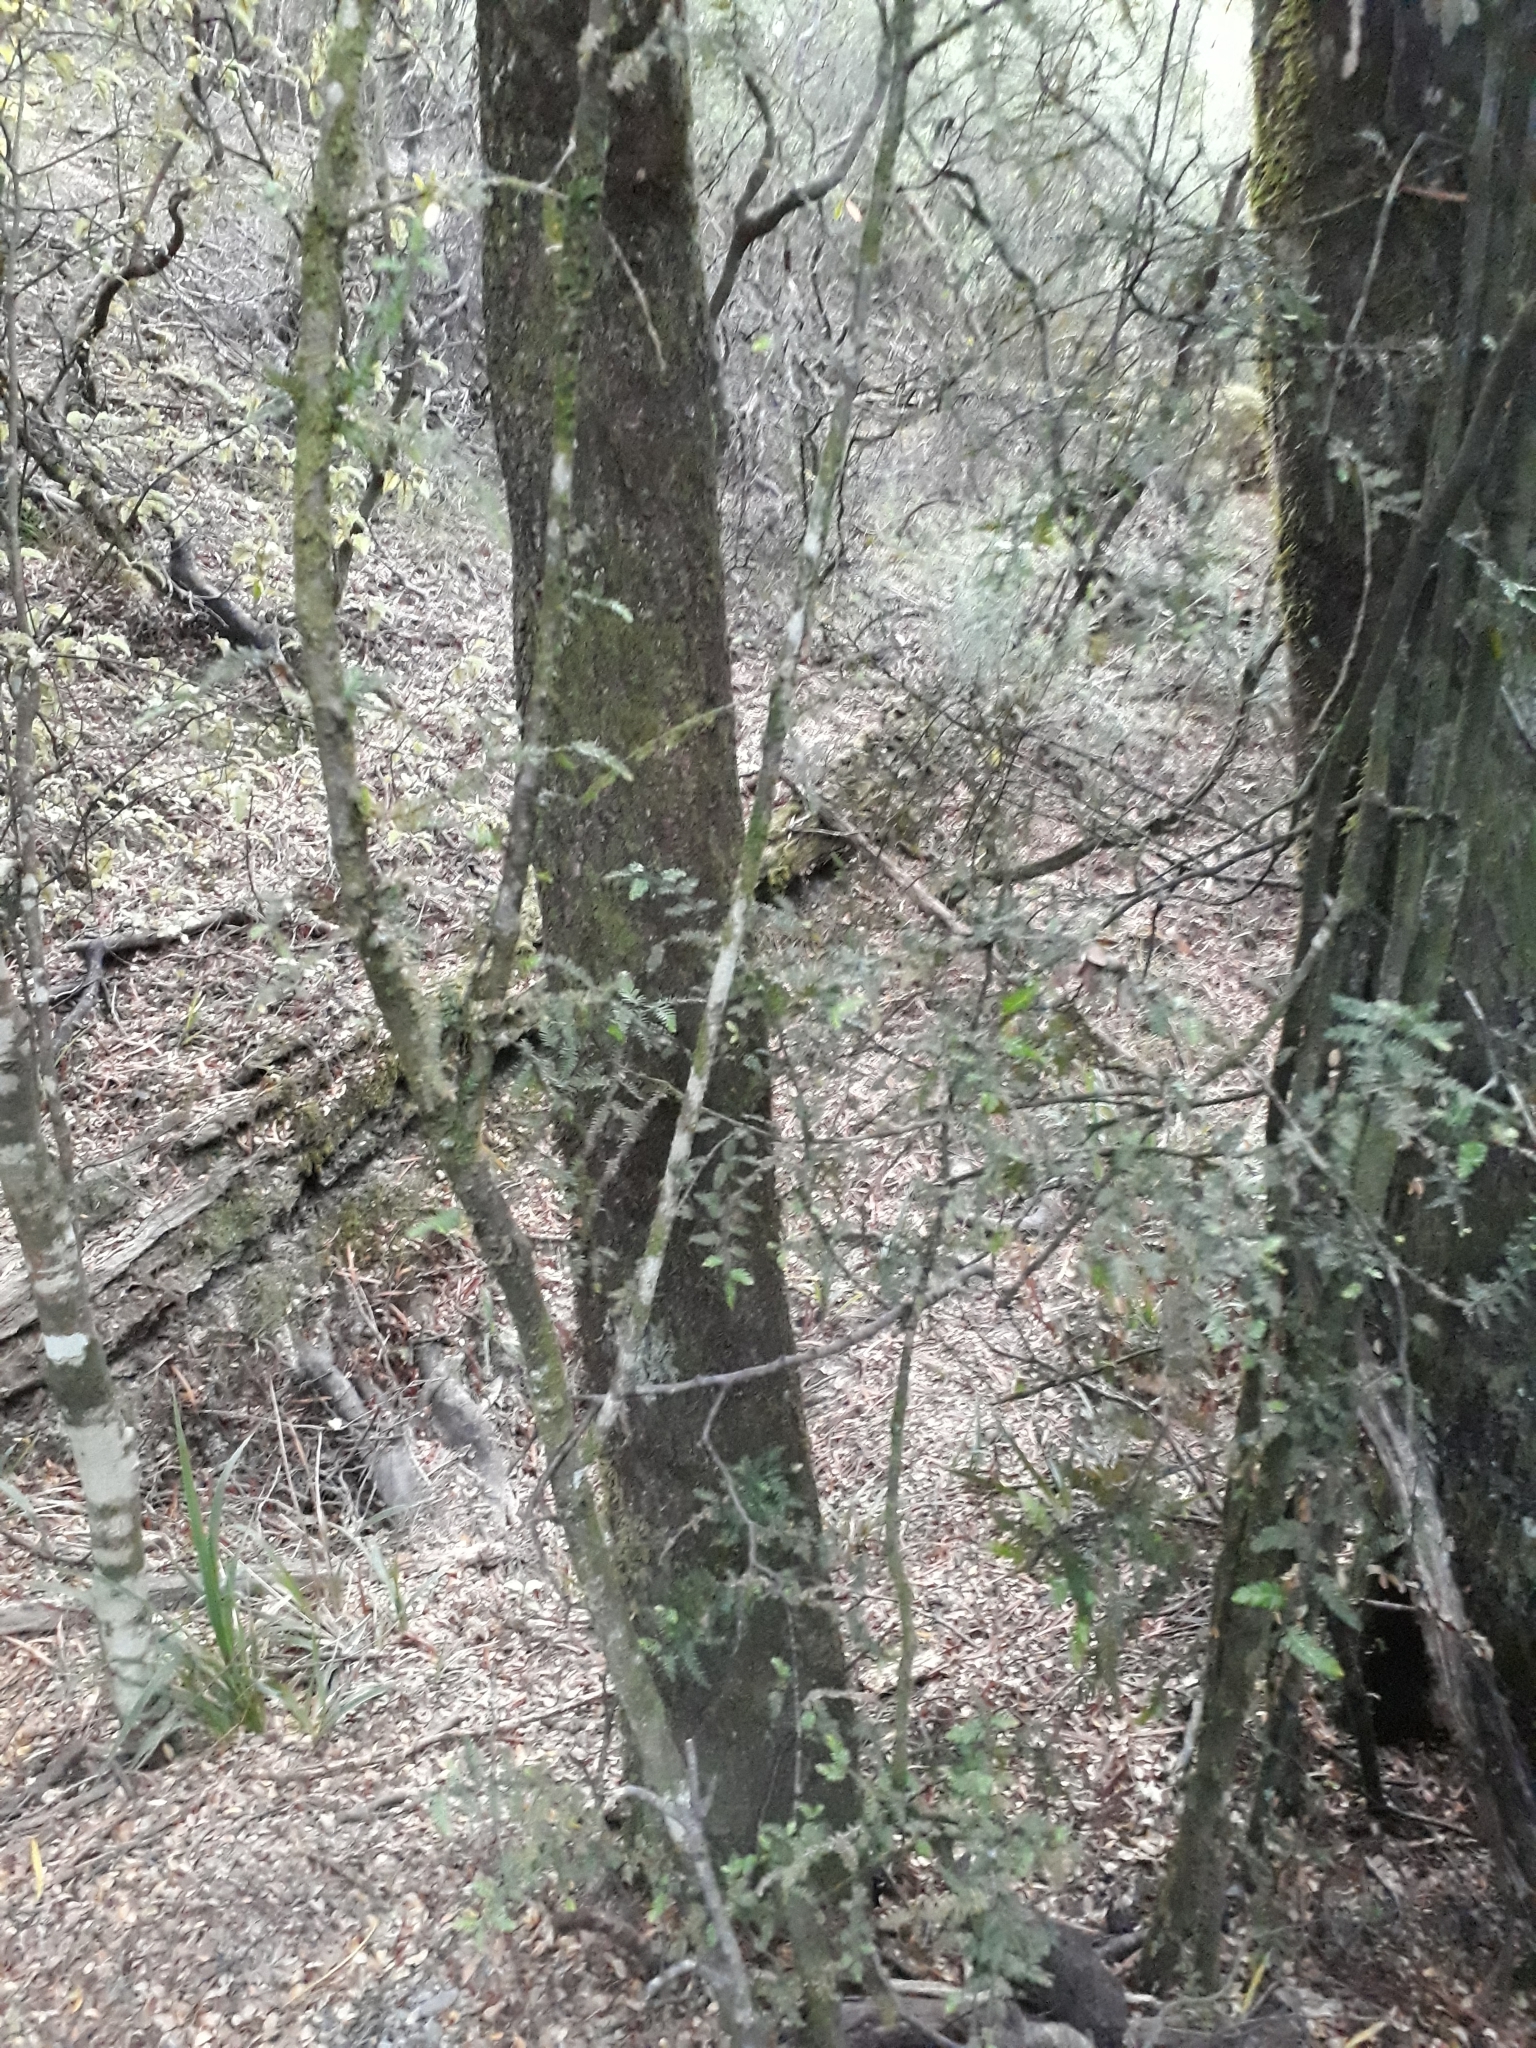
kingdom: Plantae
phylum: Tracheophyta
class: Pinopsida
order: Pinales
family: Podocarpaceae
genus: Dacrycarpus
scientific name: Dacrycarpus dacrydioides
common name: White pine
